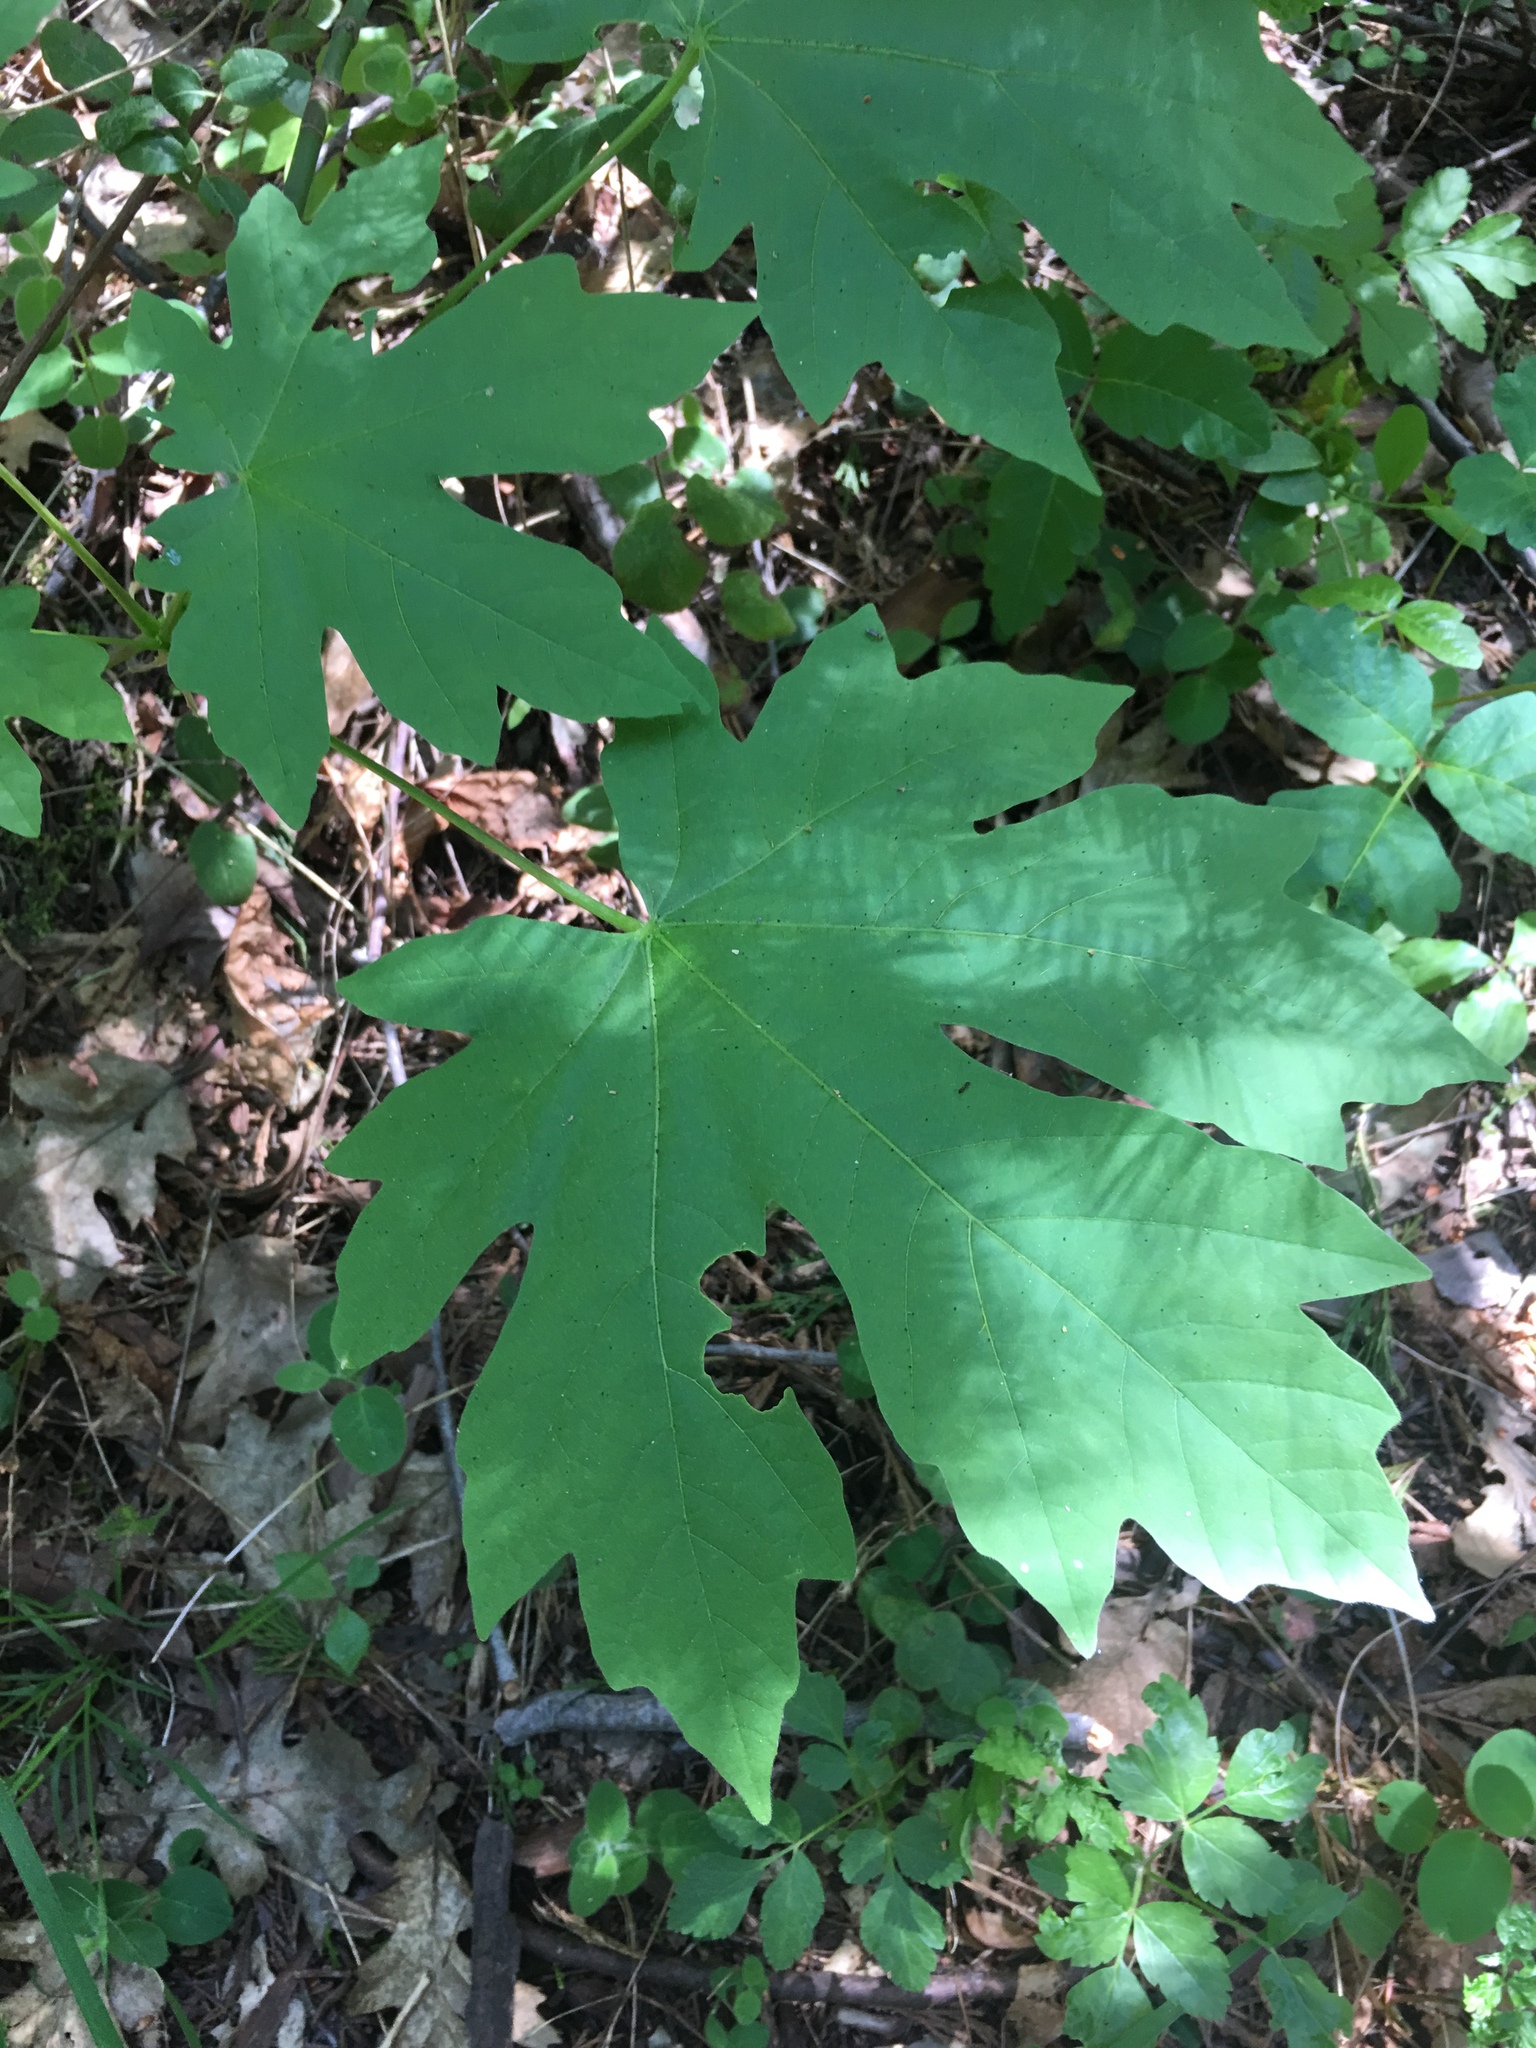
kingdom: Plantae
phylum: Tracheophyta
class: Magnoliopsida
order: Sapindales
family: Sapindaceae
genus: Acer
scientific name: Acer macrophyllum
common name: Oregon maple
